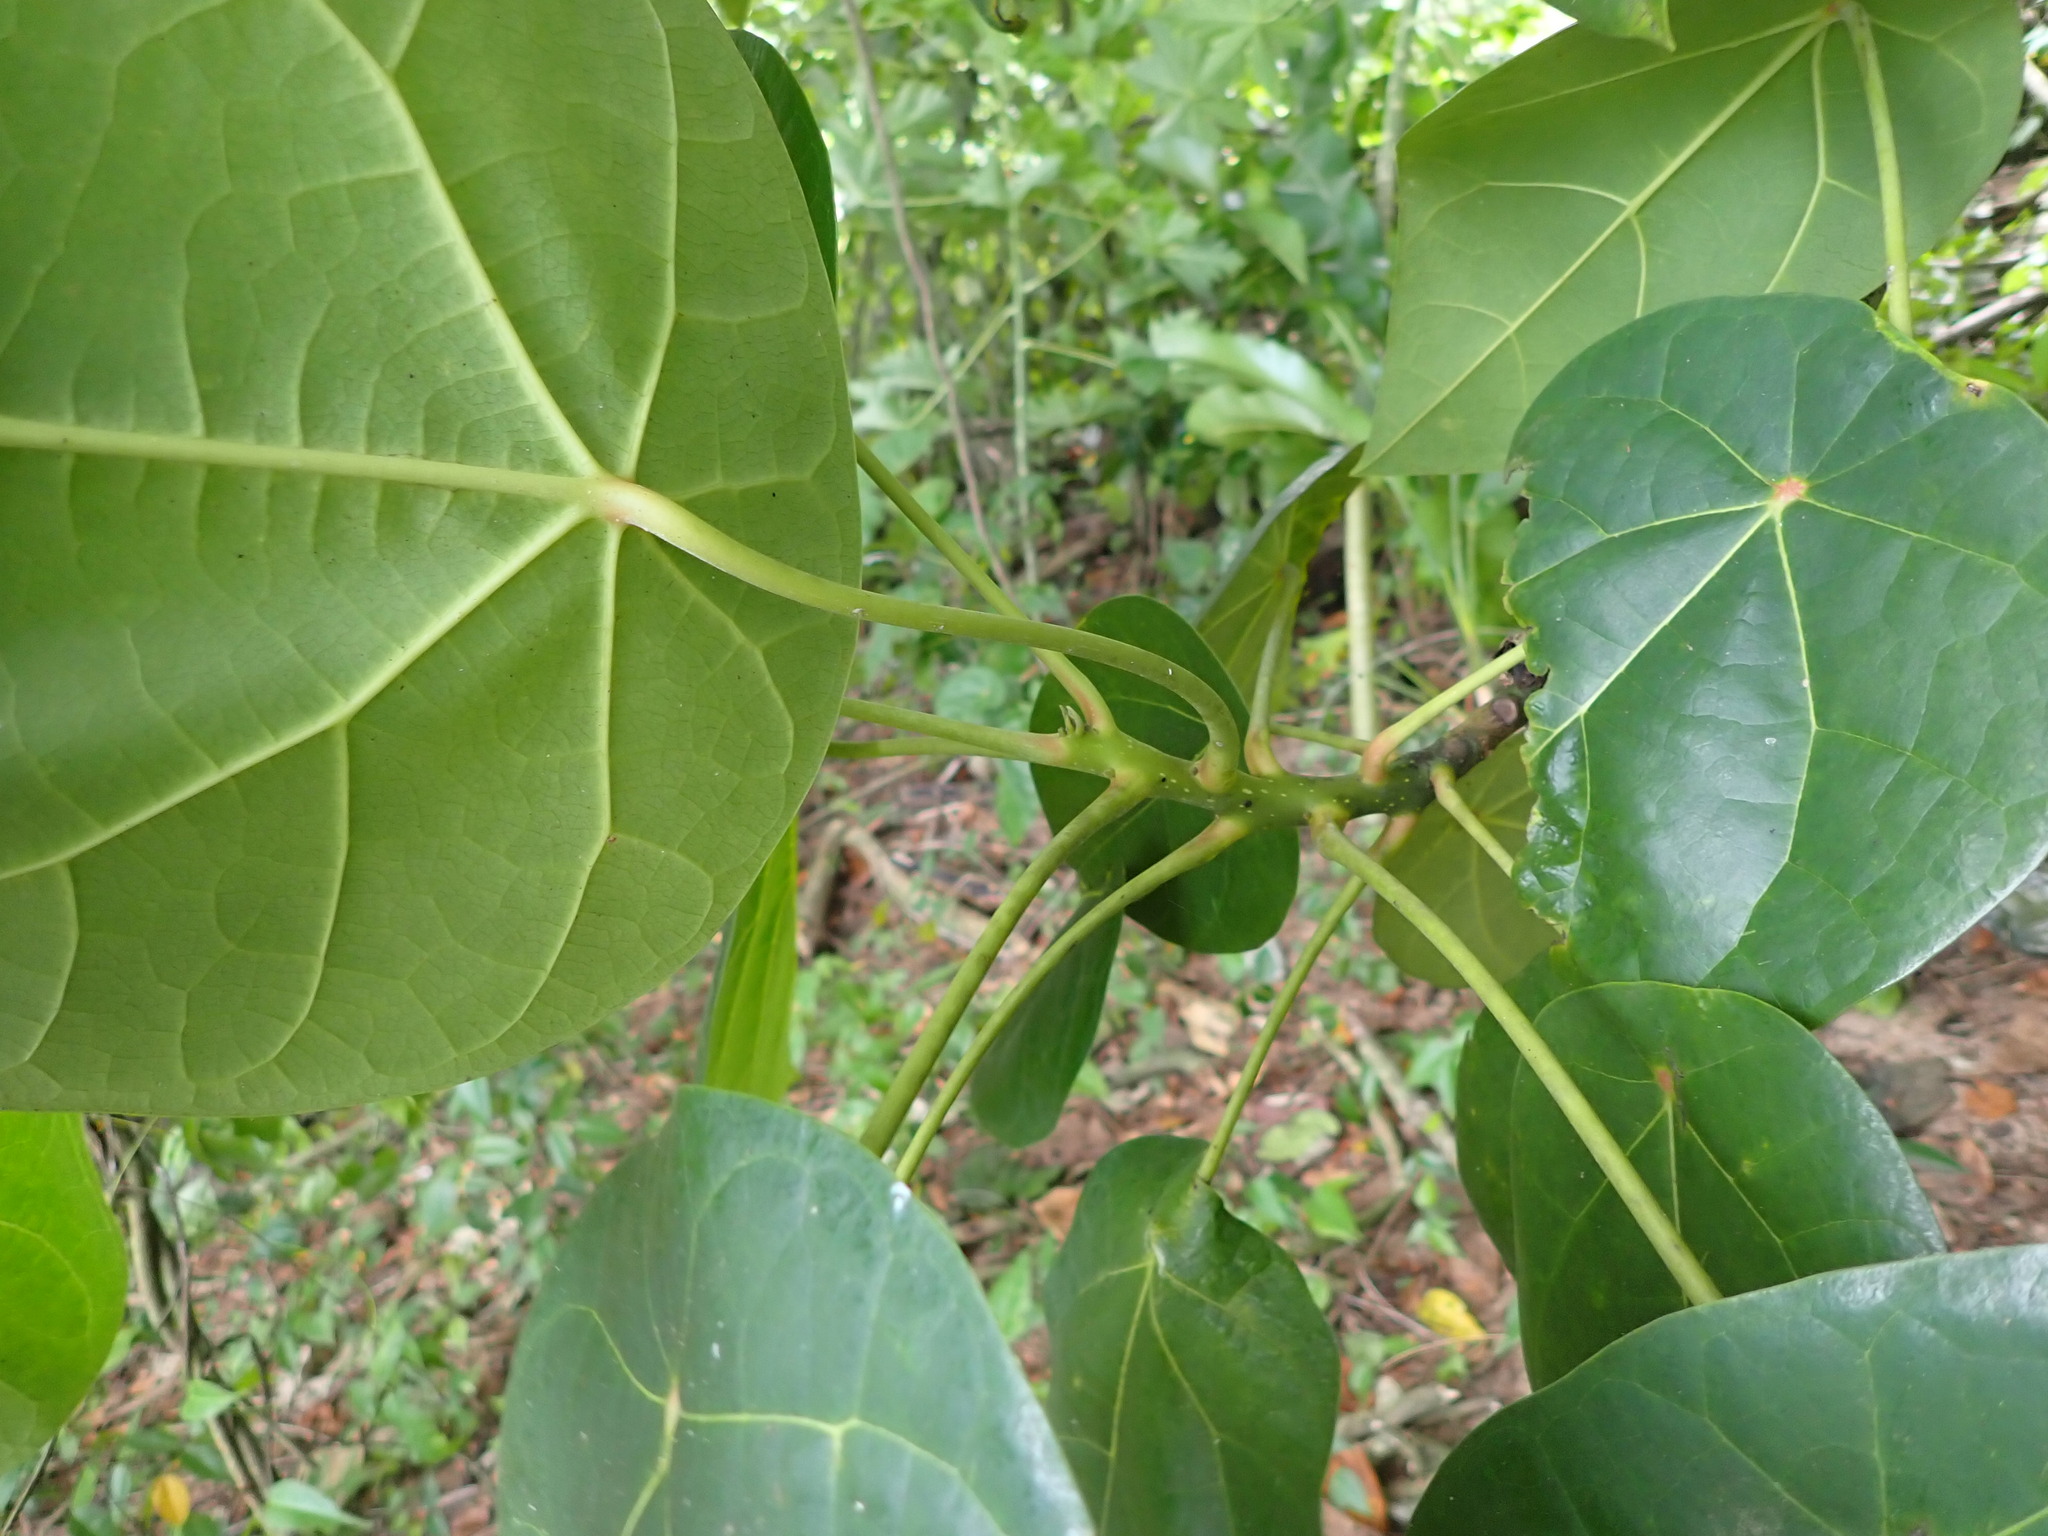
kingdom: Plantae
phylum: Tracheophyta
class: Magnoliopsida
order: Laurales
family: Hernandiaceae
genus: Hernandia
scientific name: Hernandia nymphaeifolia
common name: Sea hearse
